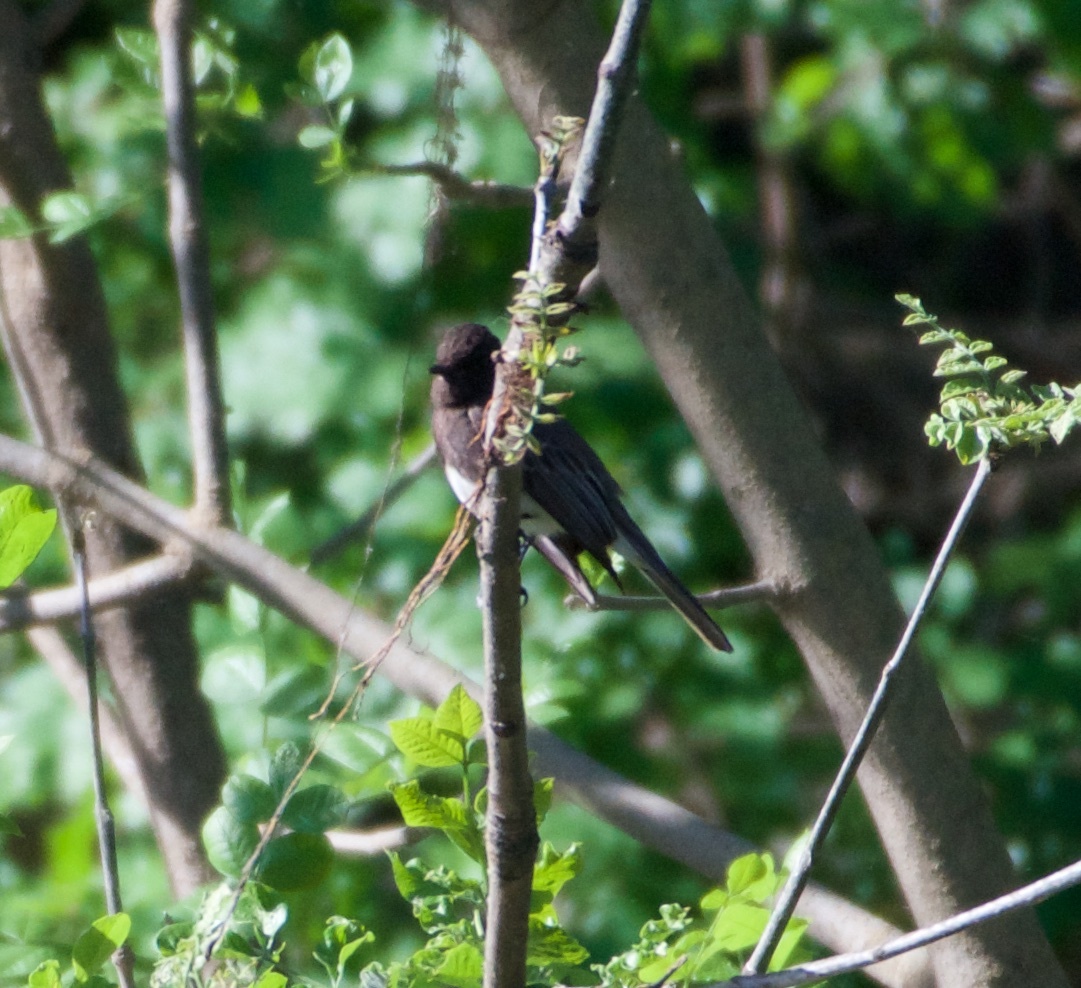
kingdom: Animalia
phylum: Chordata
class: Aves
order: Passeriformes
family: Tyrannidae
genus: Sayornis
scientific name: Sayornis nigricans
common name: Black phoebe
